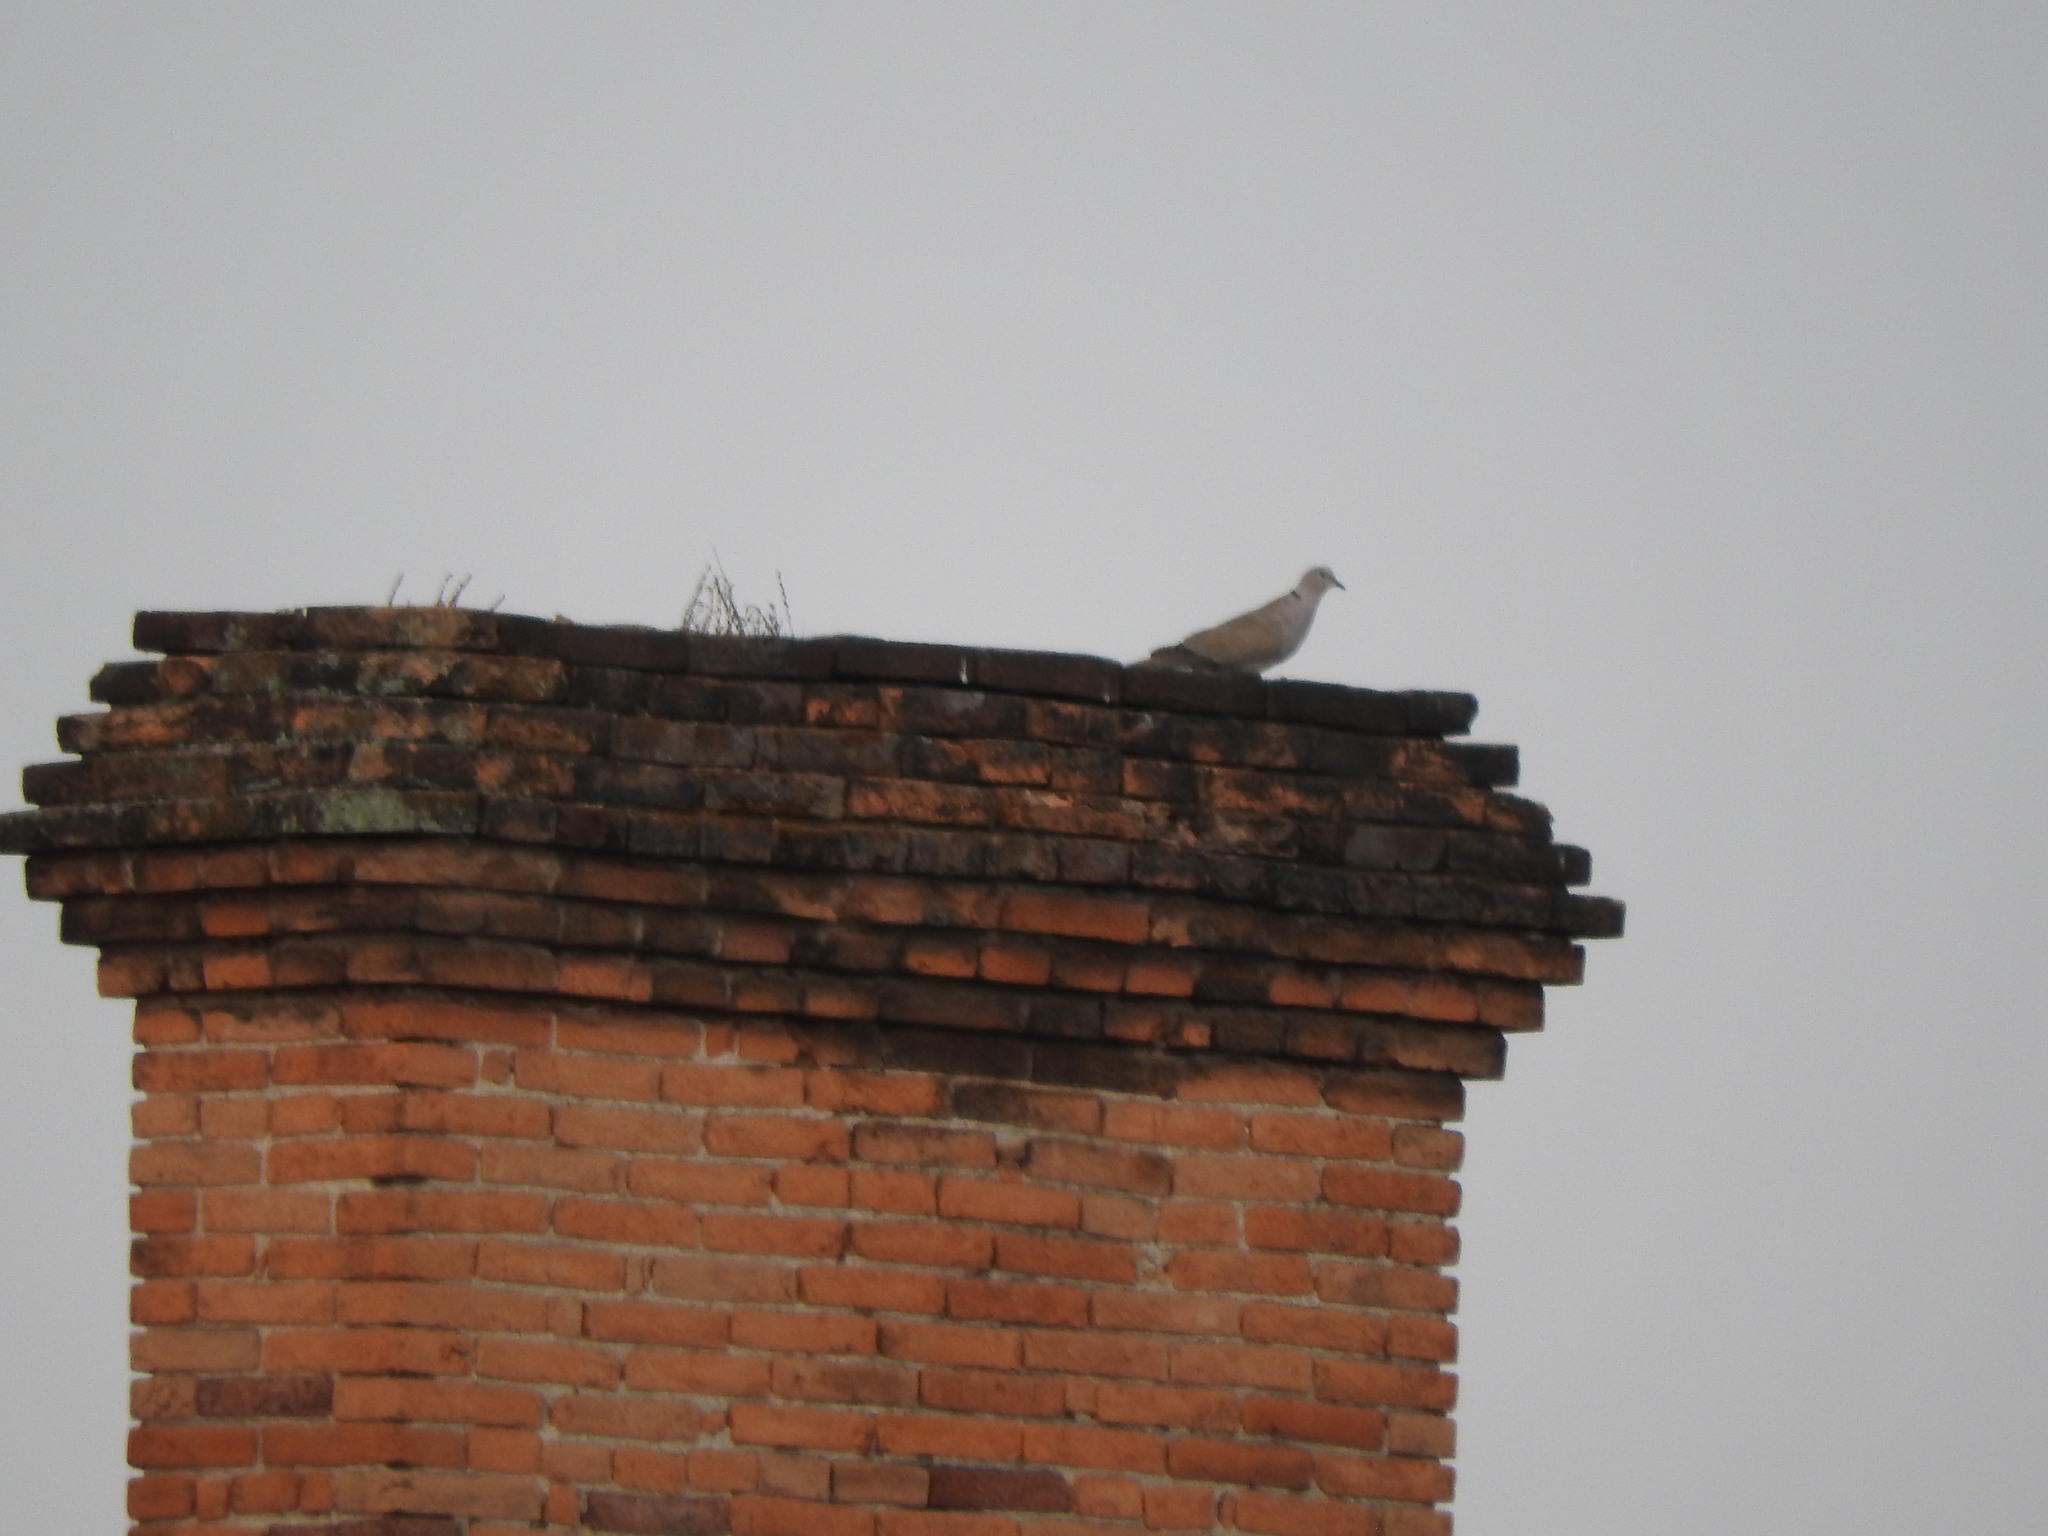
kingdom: Animalia
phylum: Chordata
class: Aves
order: Columbiformes
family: Columbidae
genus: Streptopelia
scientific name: Streptopelia decaocto
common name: Eurasian collared dove
